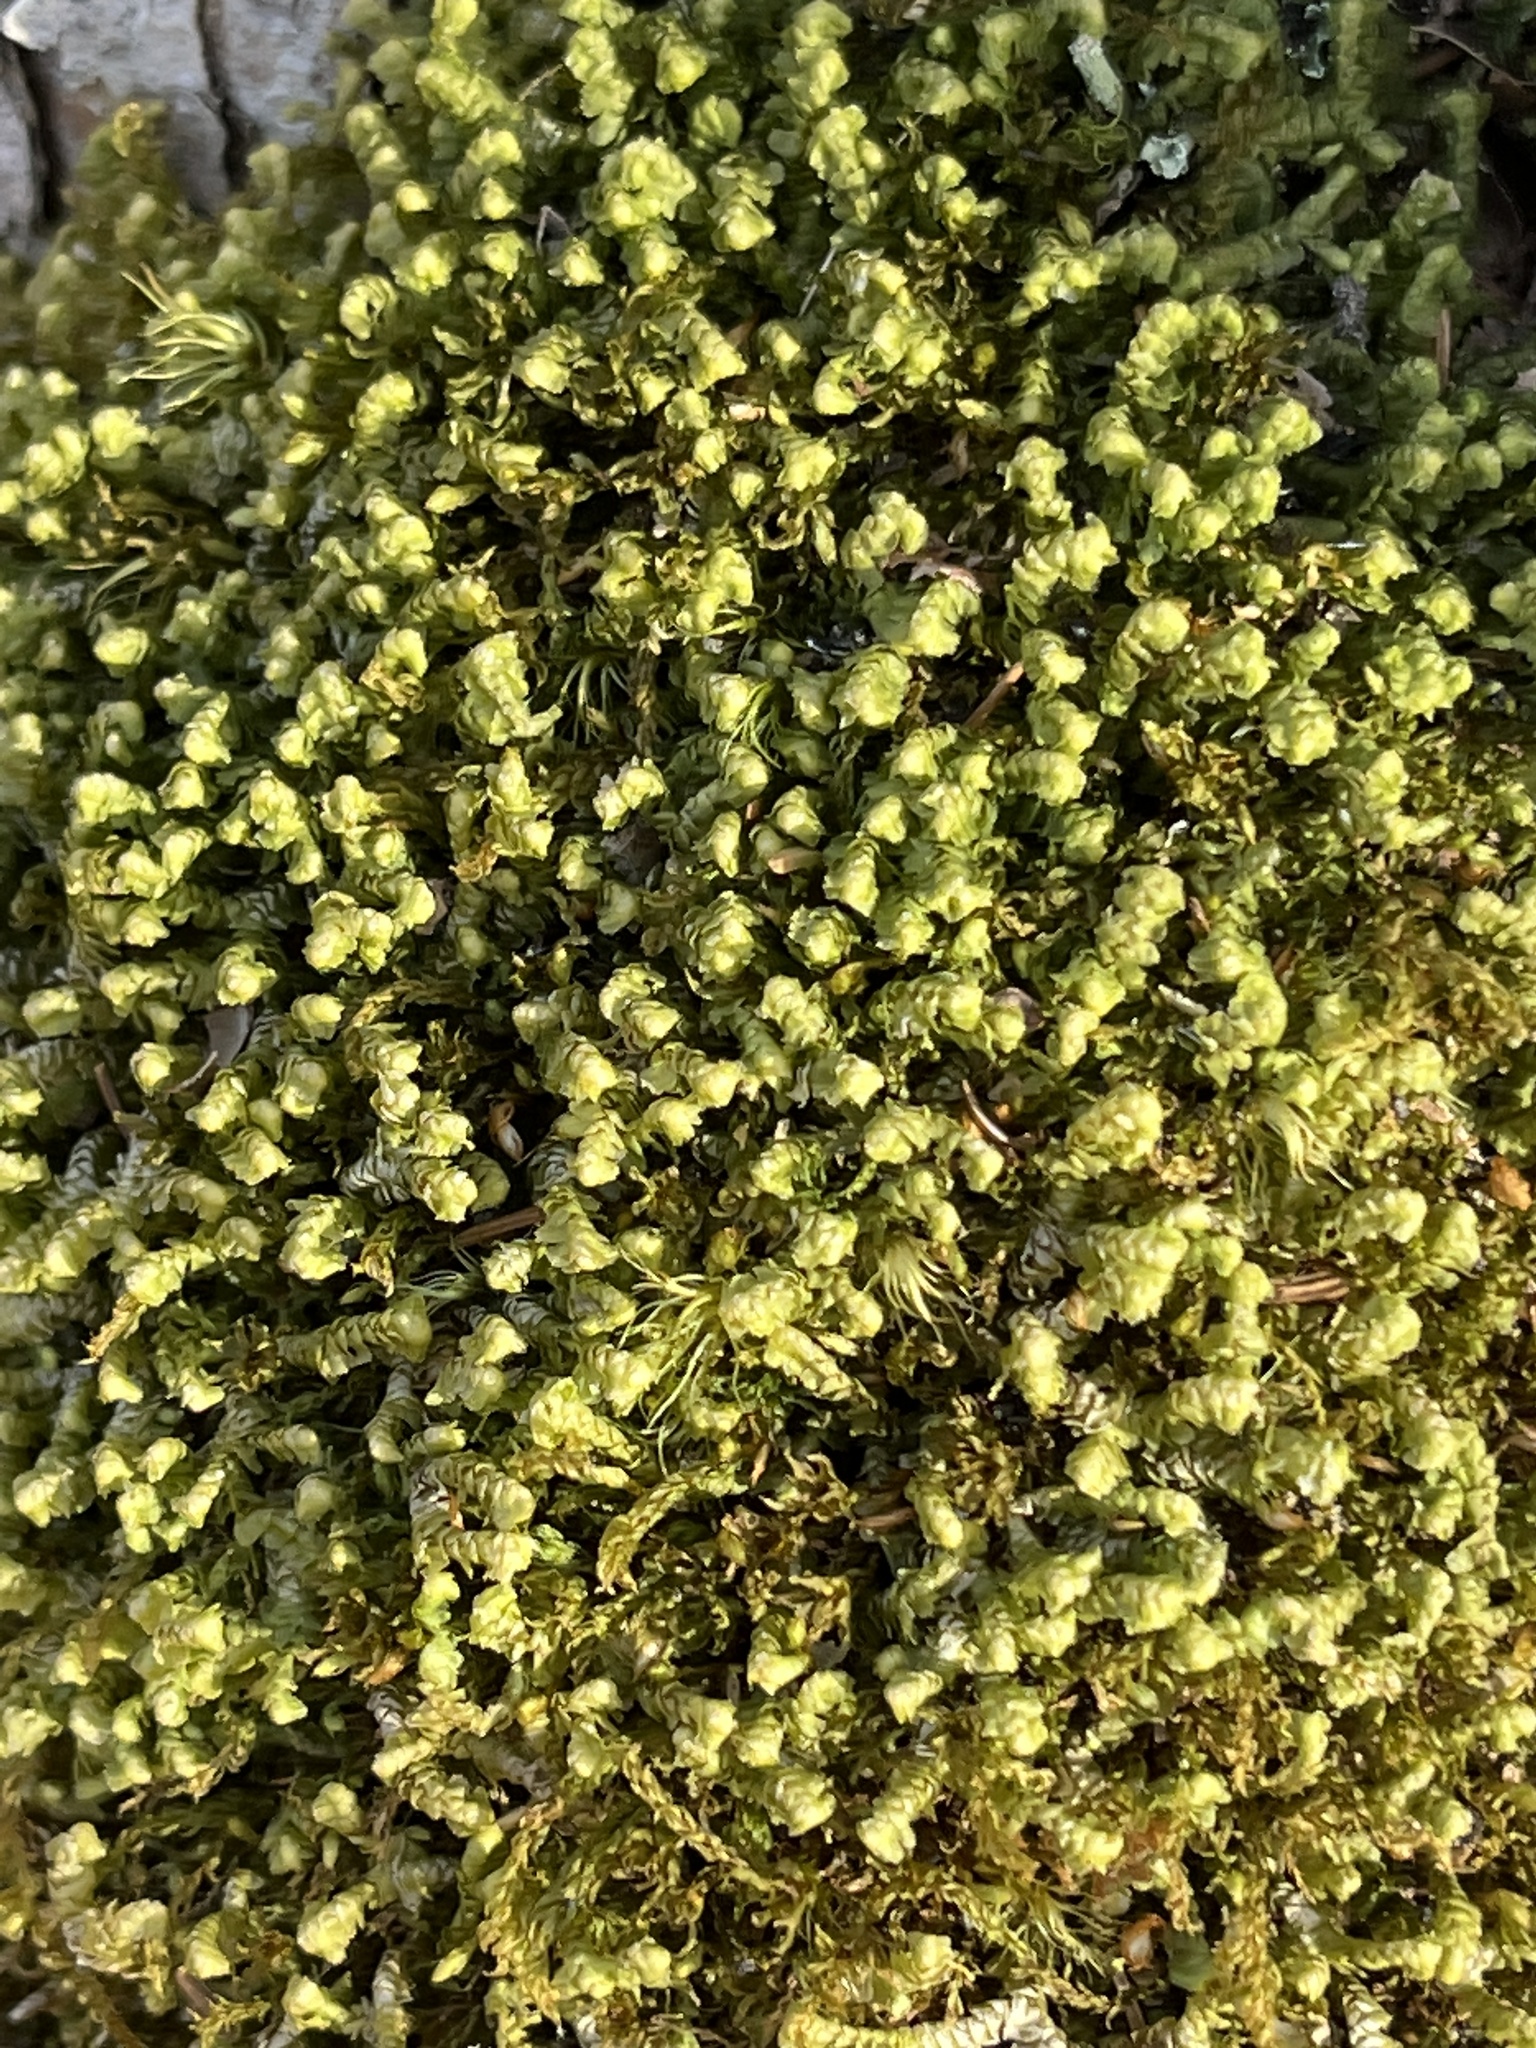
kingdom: Plantae
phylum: Marchantiophyta
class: Jungermanniopsida
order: Jungermanniales
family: Lepidoziaceae
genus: Bazzania
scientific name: Bazzania trilobata
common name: Three-lobed whipwort
